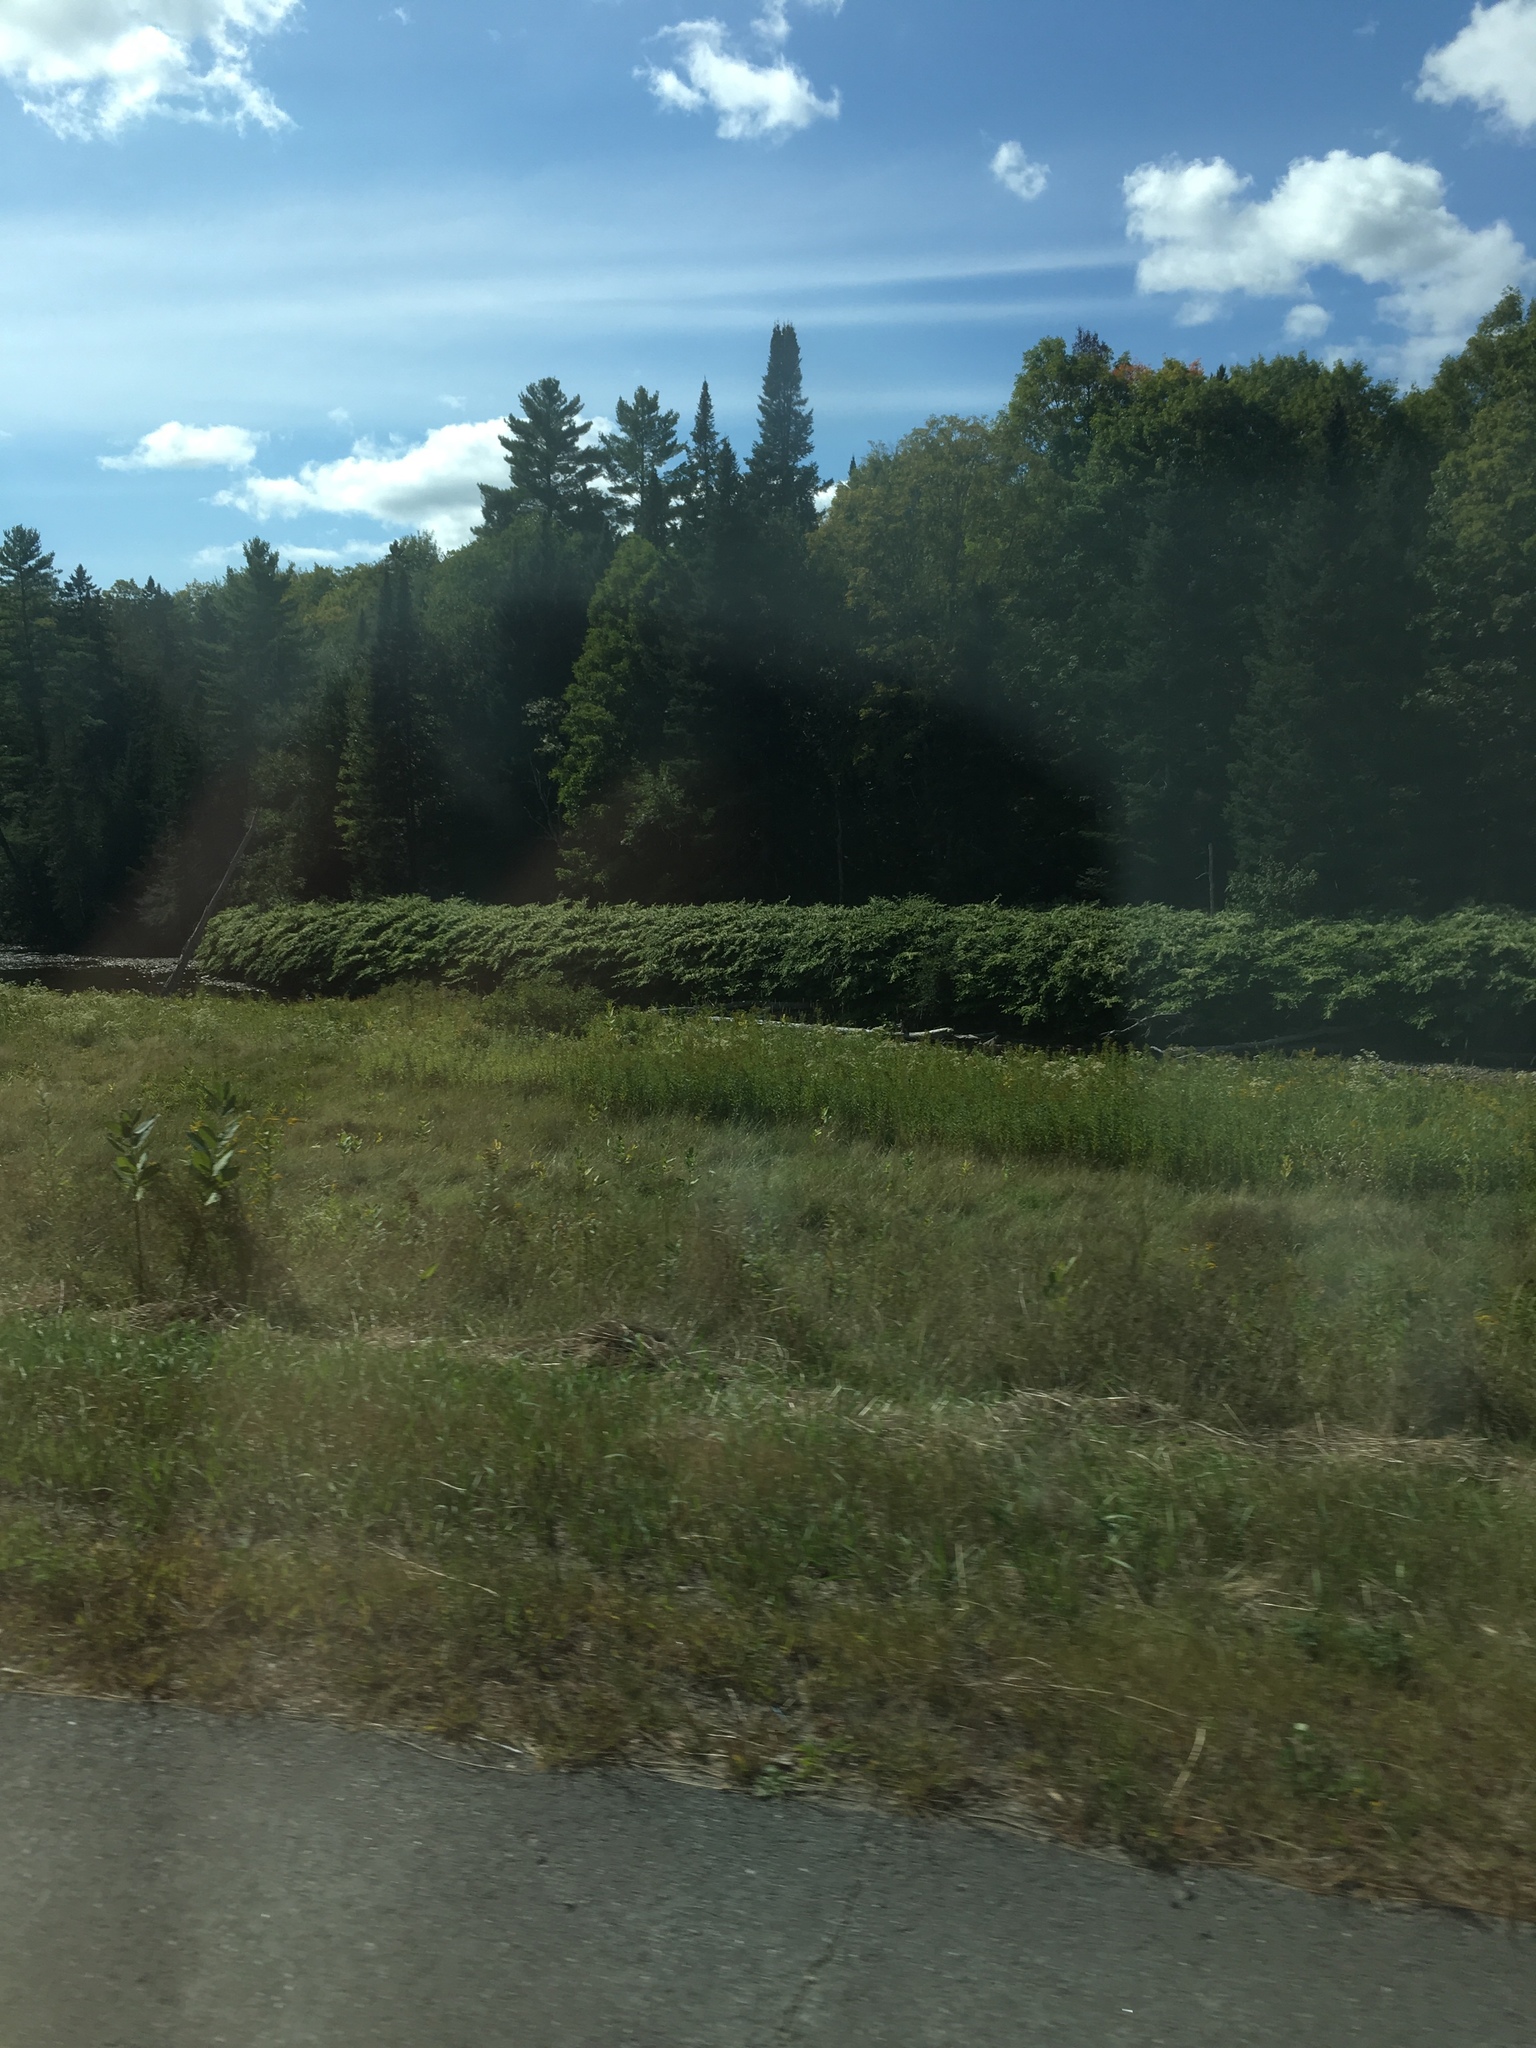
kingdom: Plantae
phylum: Tracheophyta
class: Magnoliopsida
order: Caryophyllales
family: Polygonaceae
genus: Reynoutria
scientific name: Reynoutria japonica
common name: Japanese knotweed
